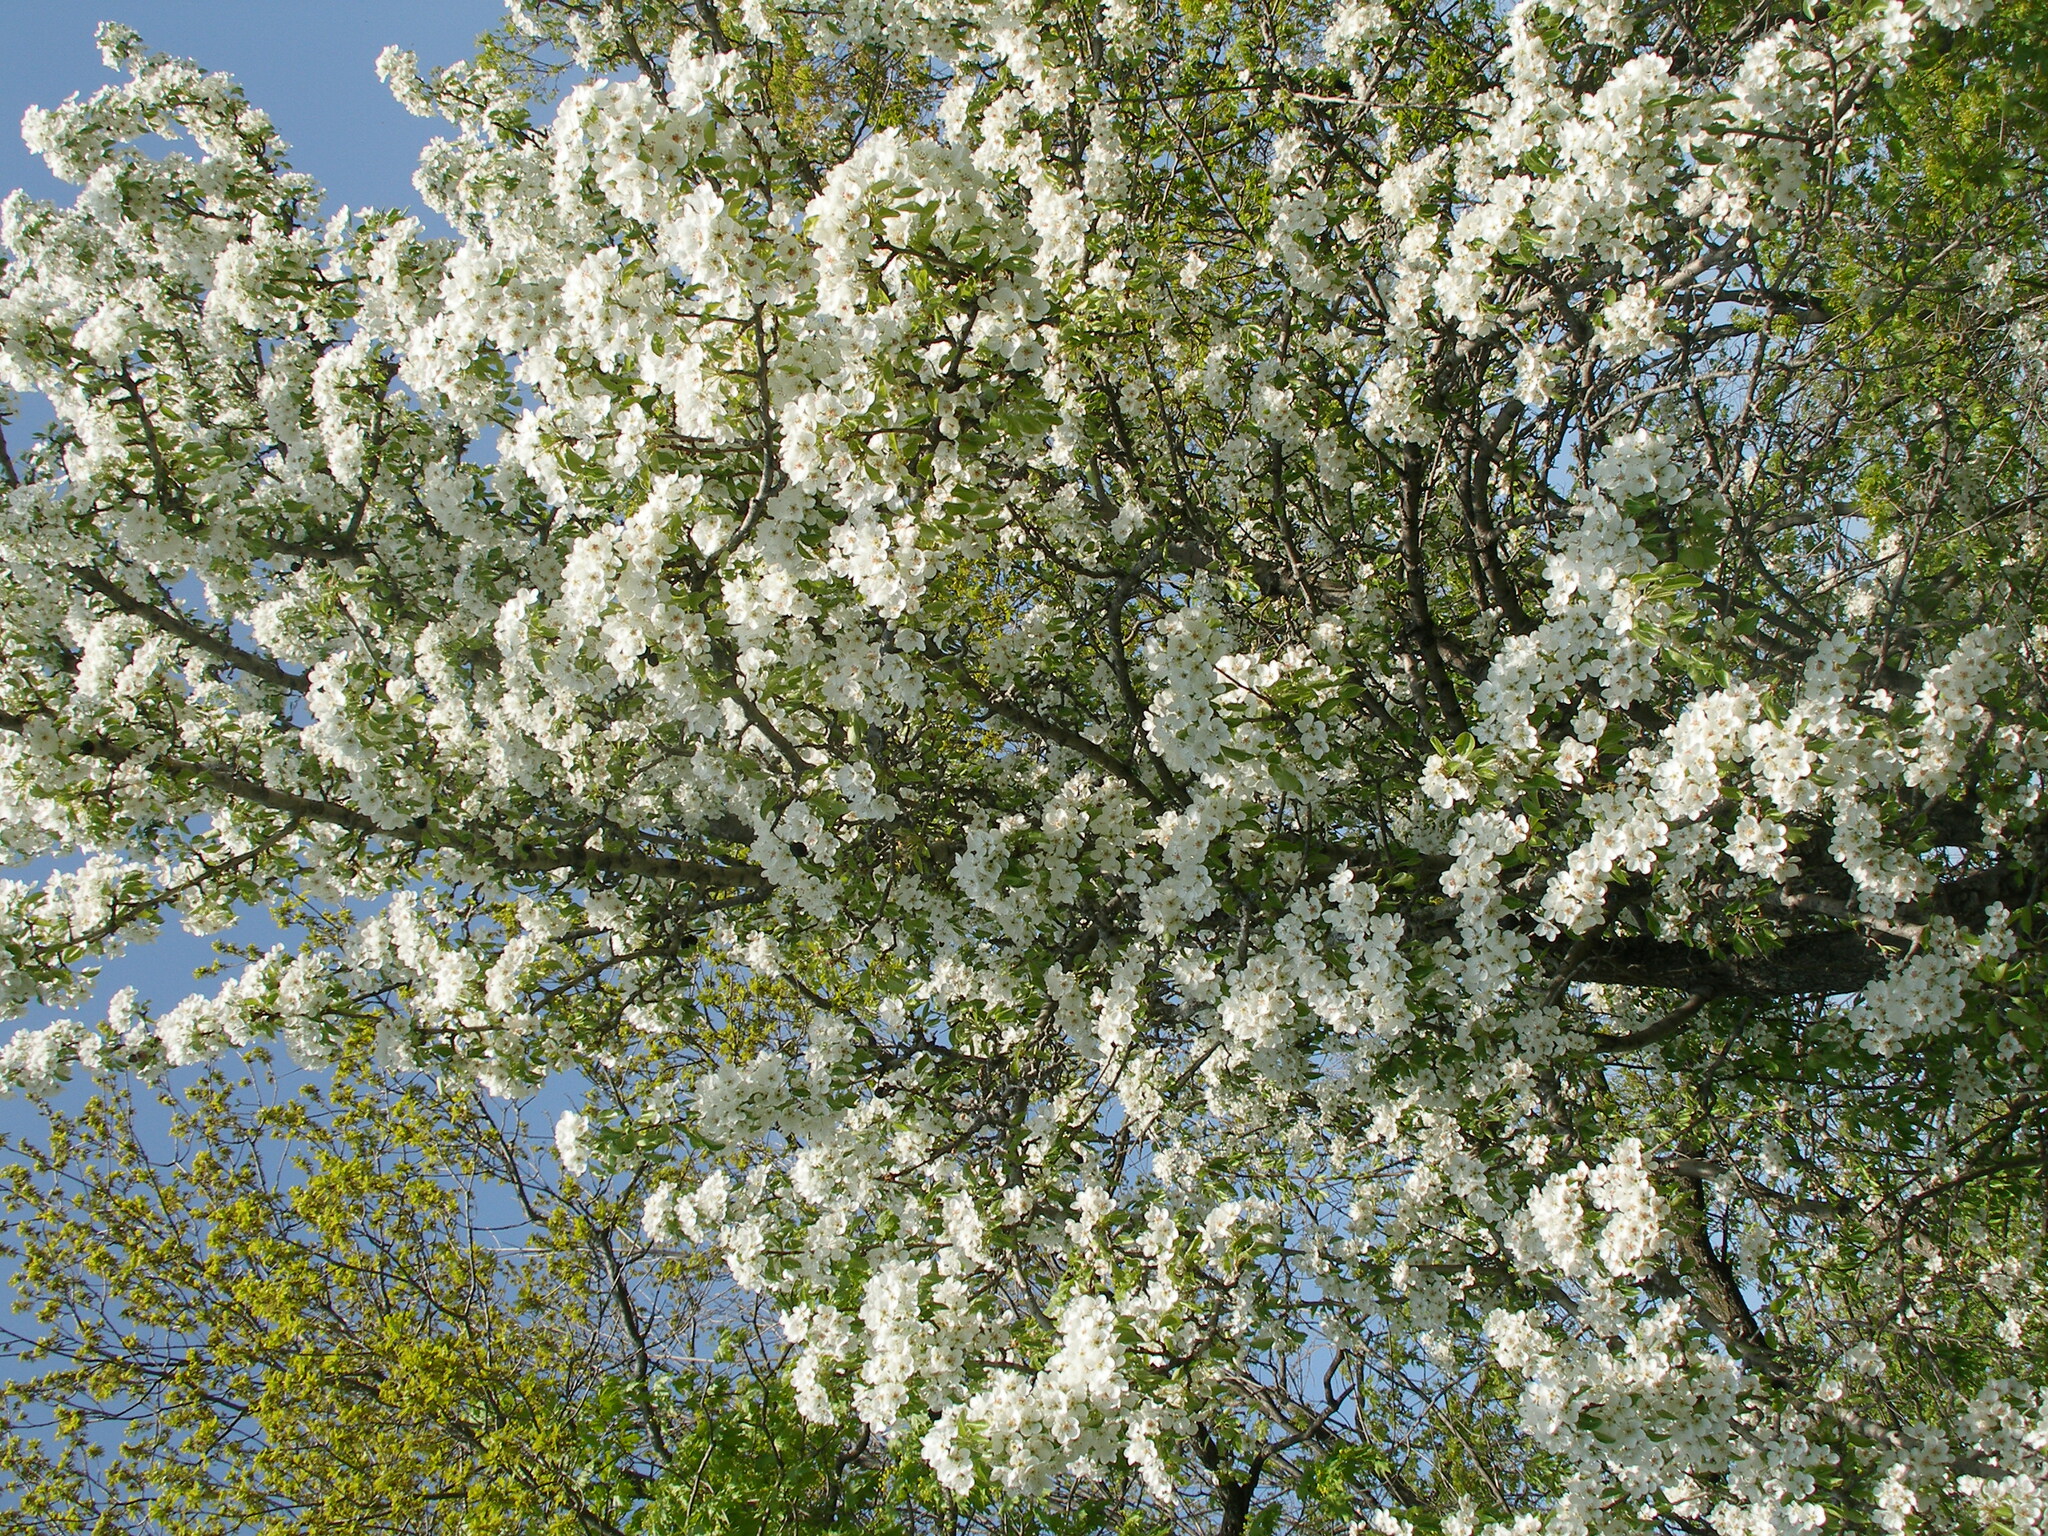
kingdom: Plantae
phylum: Tracheophyta
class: Magnoliopsida
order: Rosales
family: Rosaceae
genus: Pyrus
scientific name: Pyrus communis
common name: Pear
